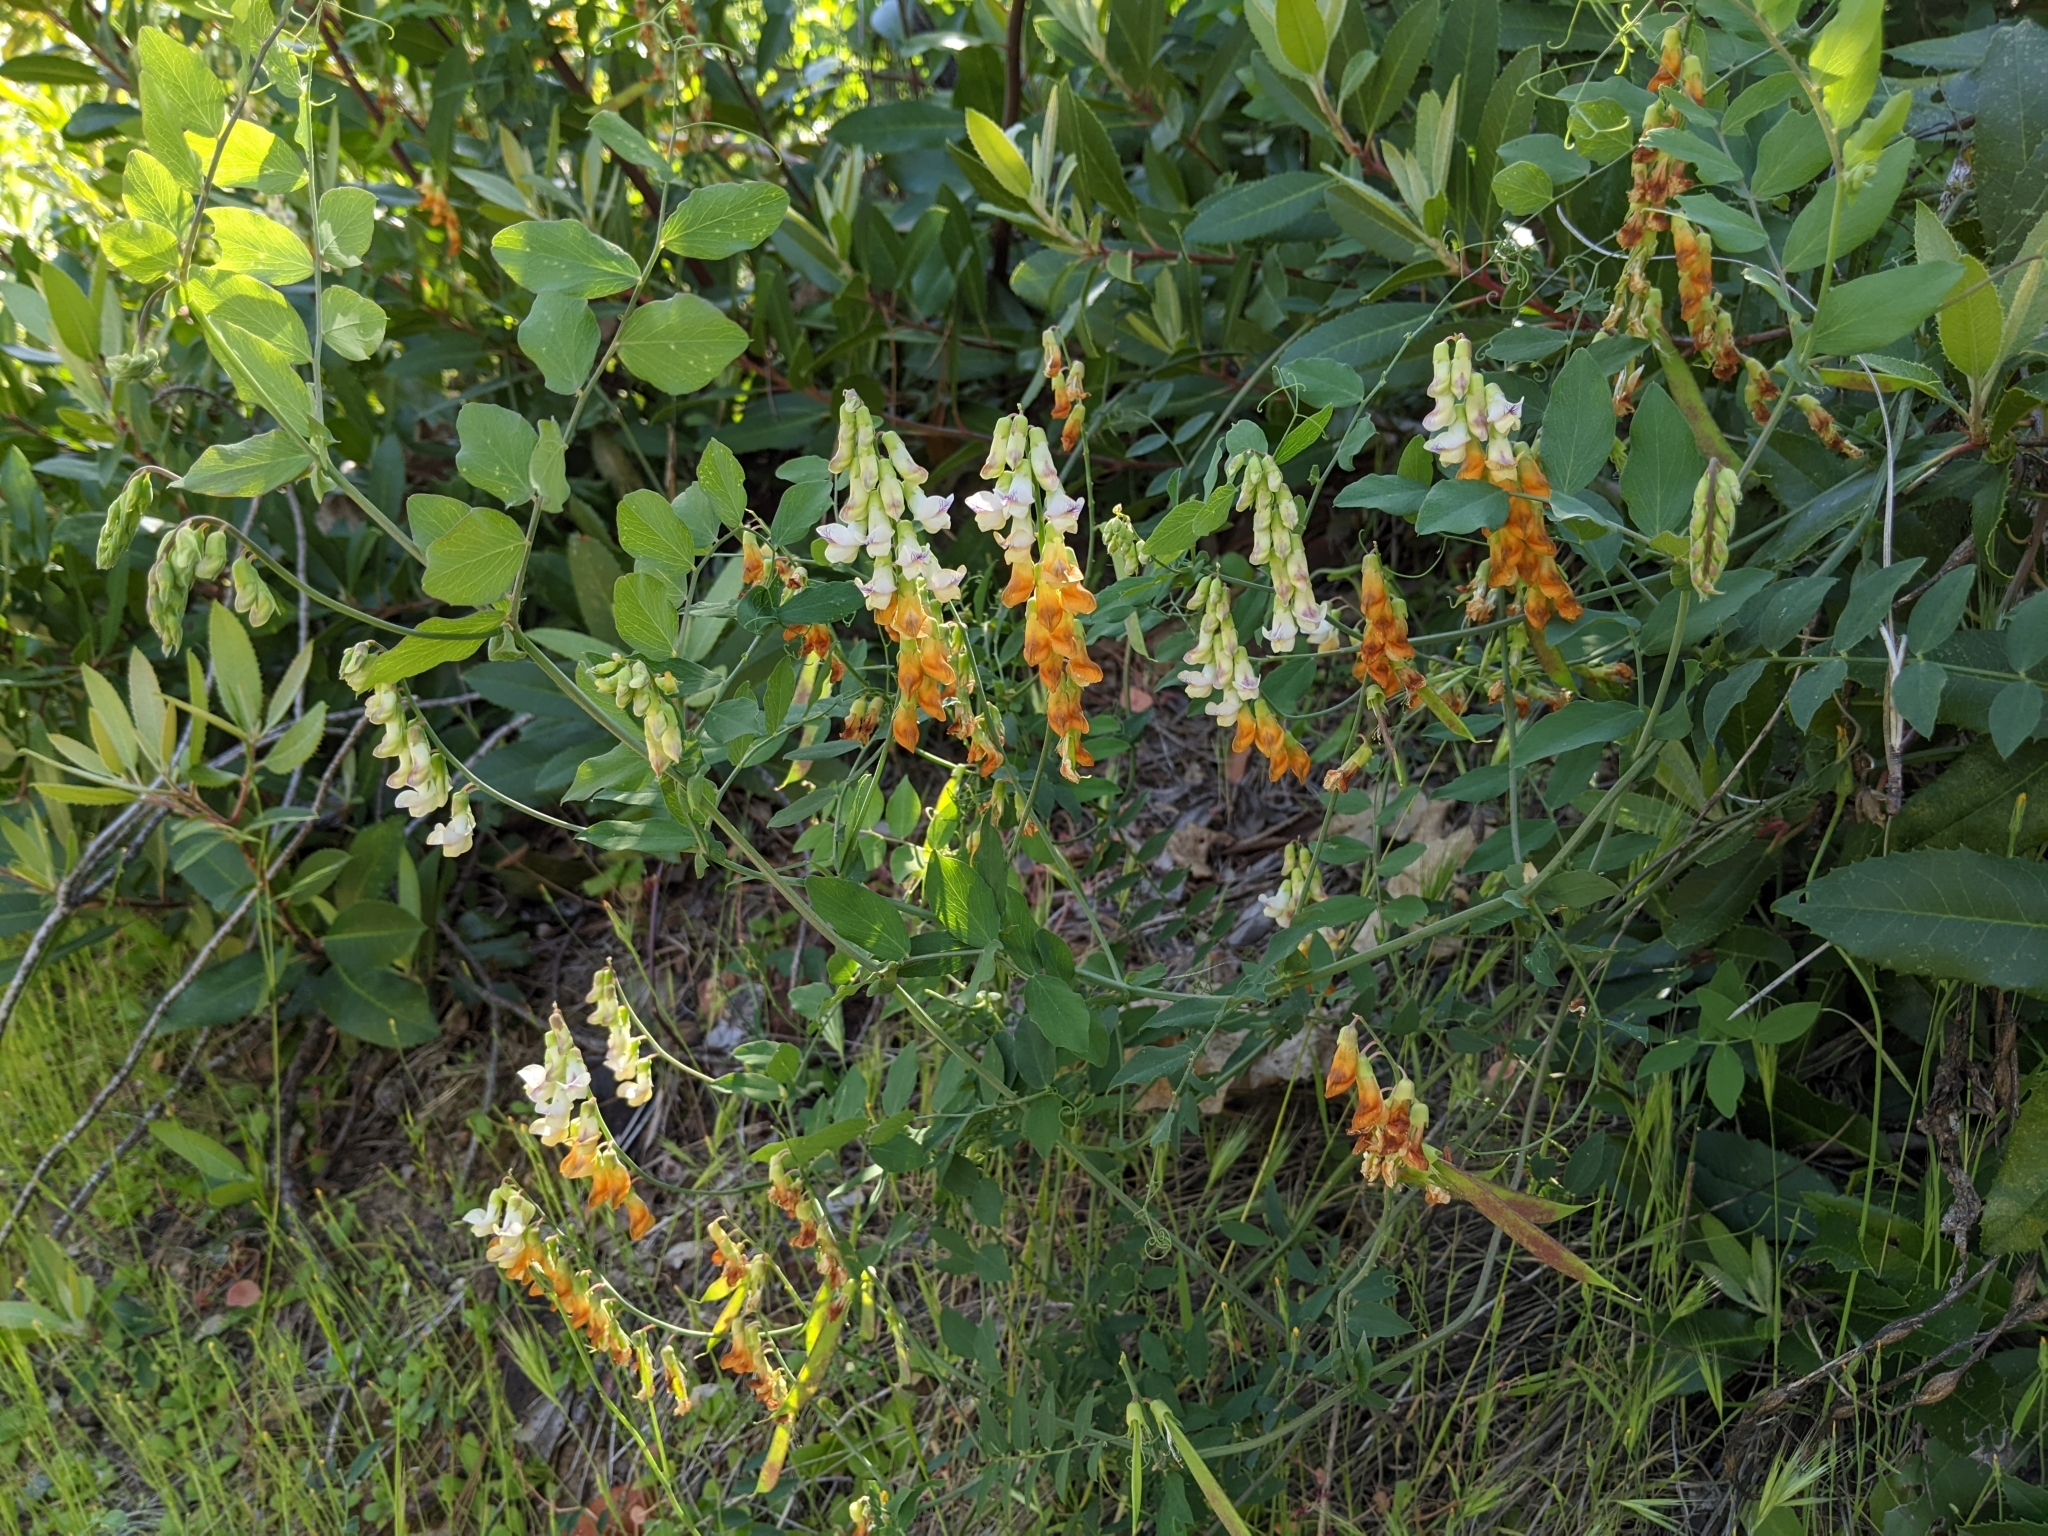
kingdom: Plantae
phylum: Tracheophyta
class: Magnoliopsida
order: Fabales
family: Fabaceae
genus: Lathyrus
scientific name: Lathyrus sulphureus
